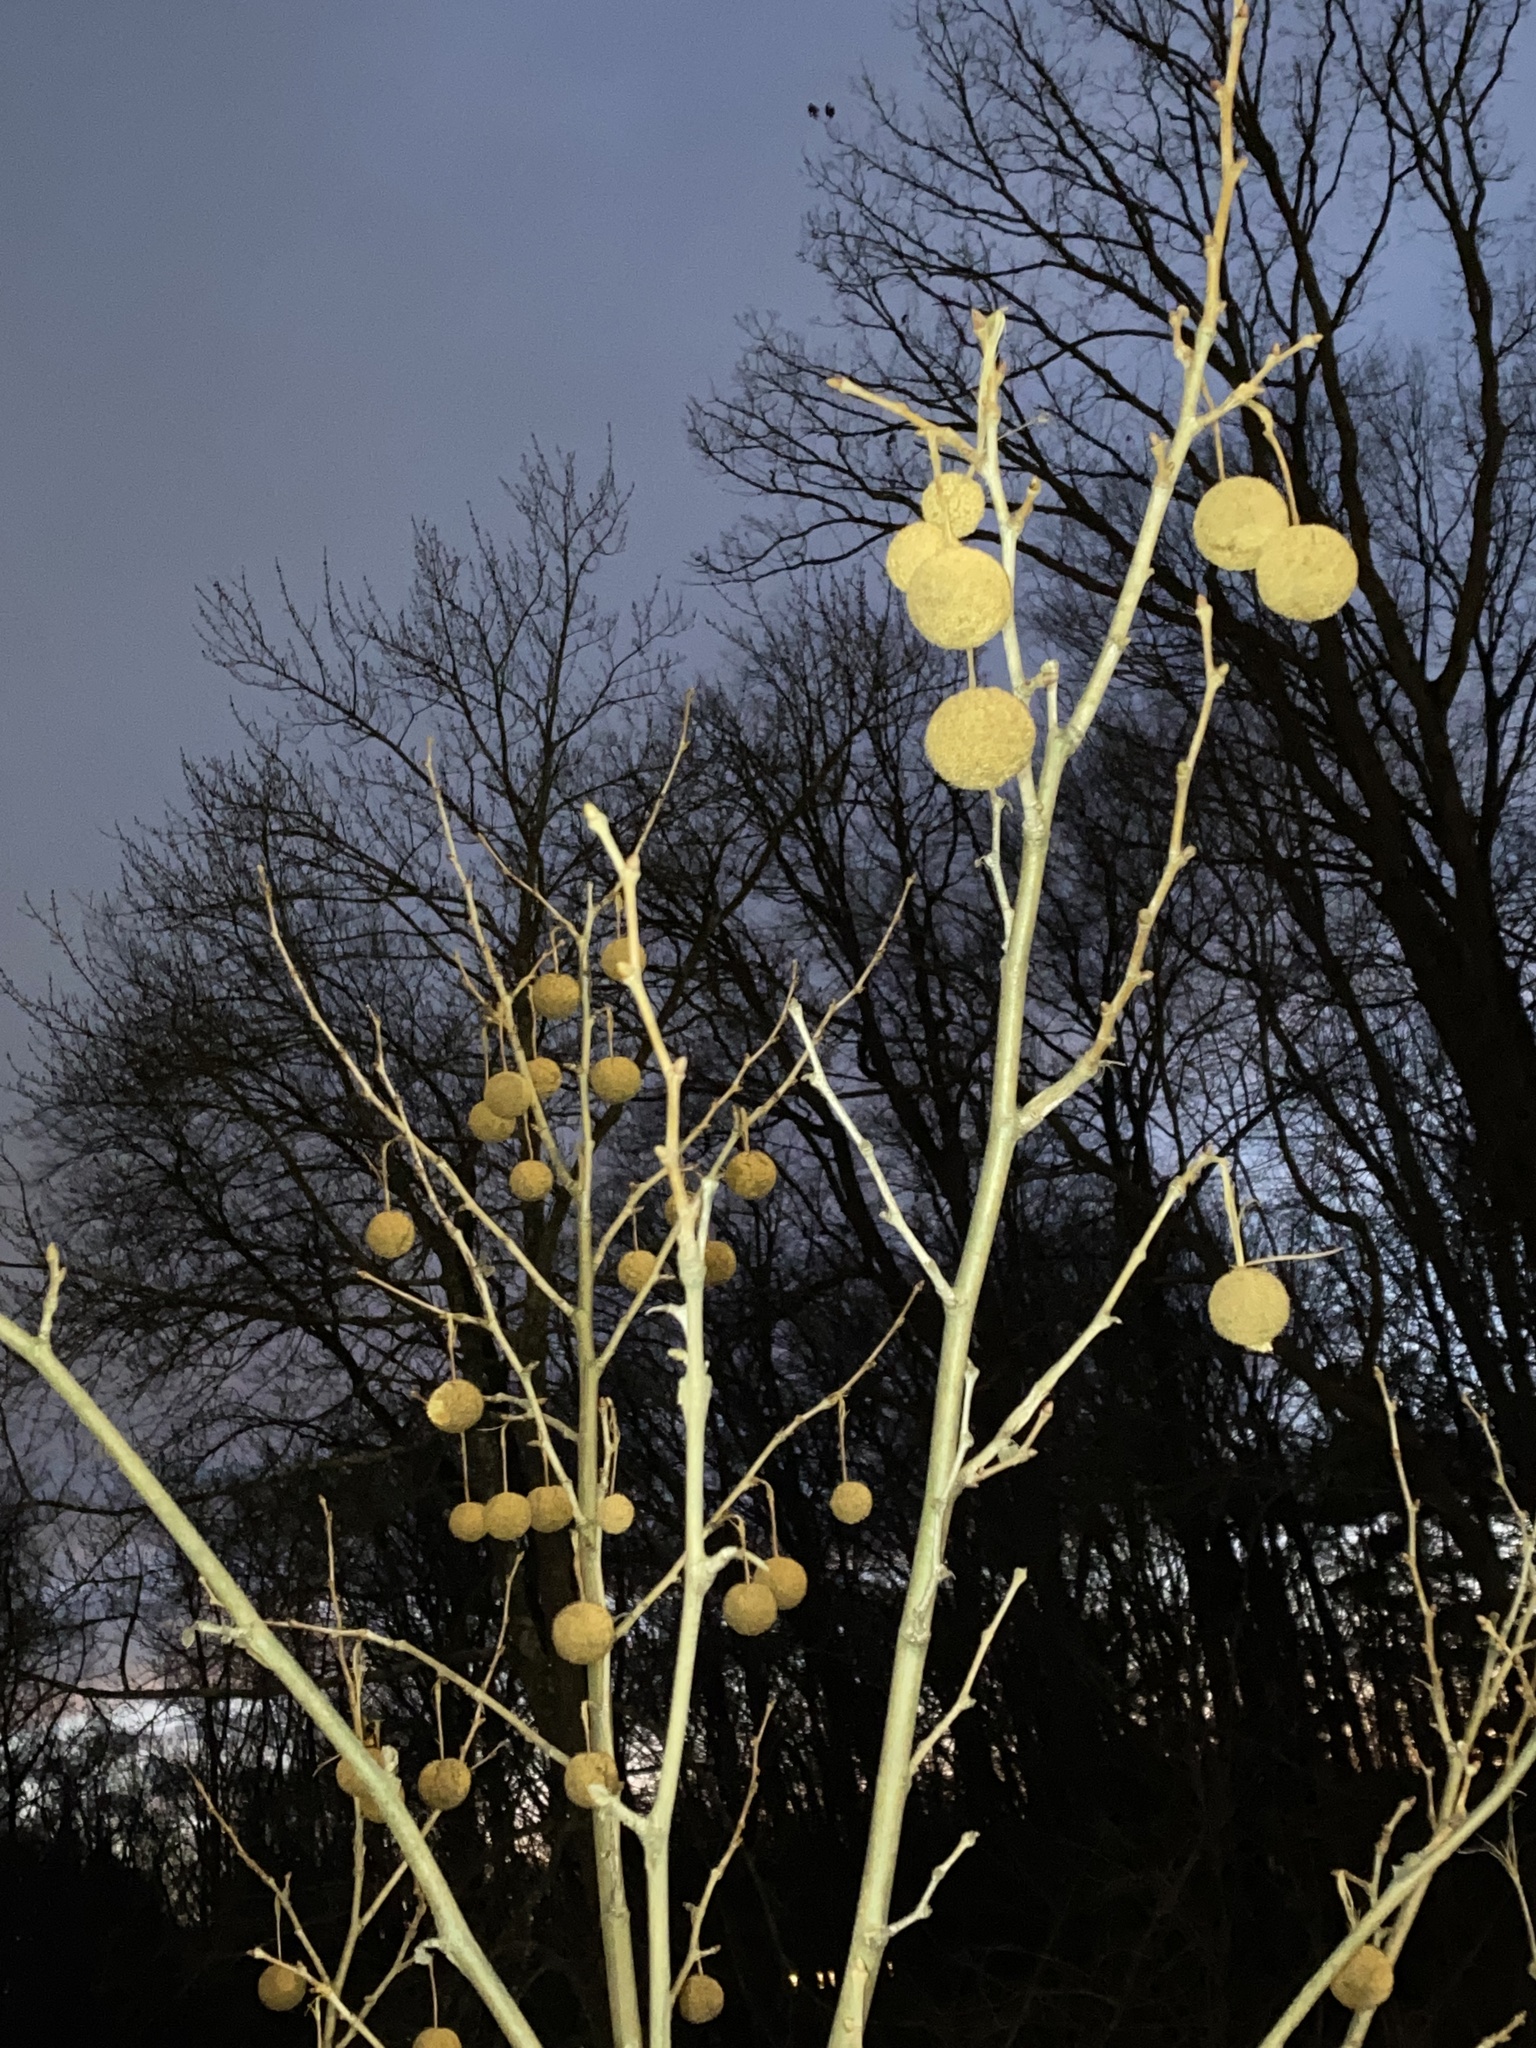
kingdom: Plantae
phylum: Tracheophyta
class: Magnoliopsida
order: Proteales
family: Platanaceae
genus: Platanus
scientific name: Platanus occidentalis
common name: American sycamore
